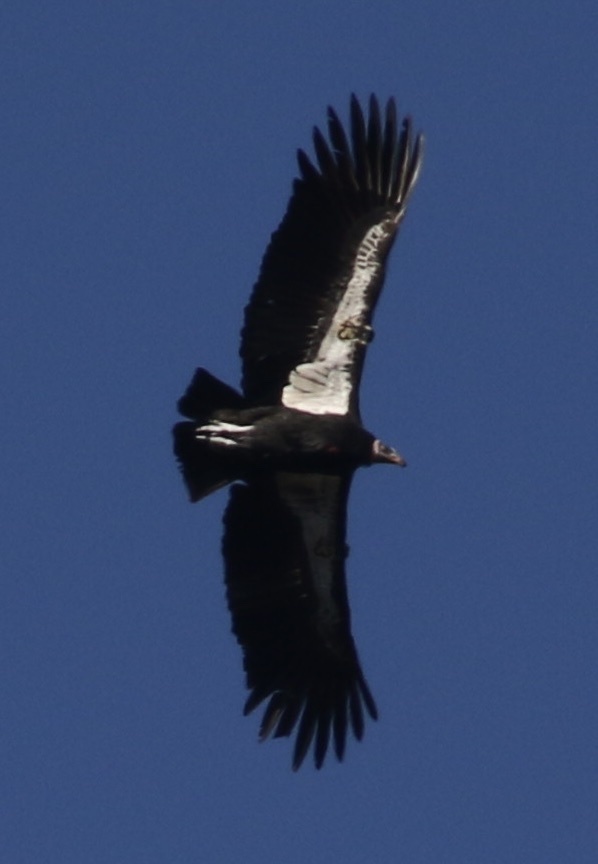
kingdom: Animalia
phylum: Chordata
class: Aves
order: Accipitriformes
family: Cathartidae
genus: Gymnogyps
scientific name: Gymnogyps californianus
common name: California condor
